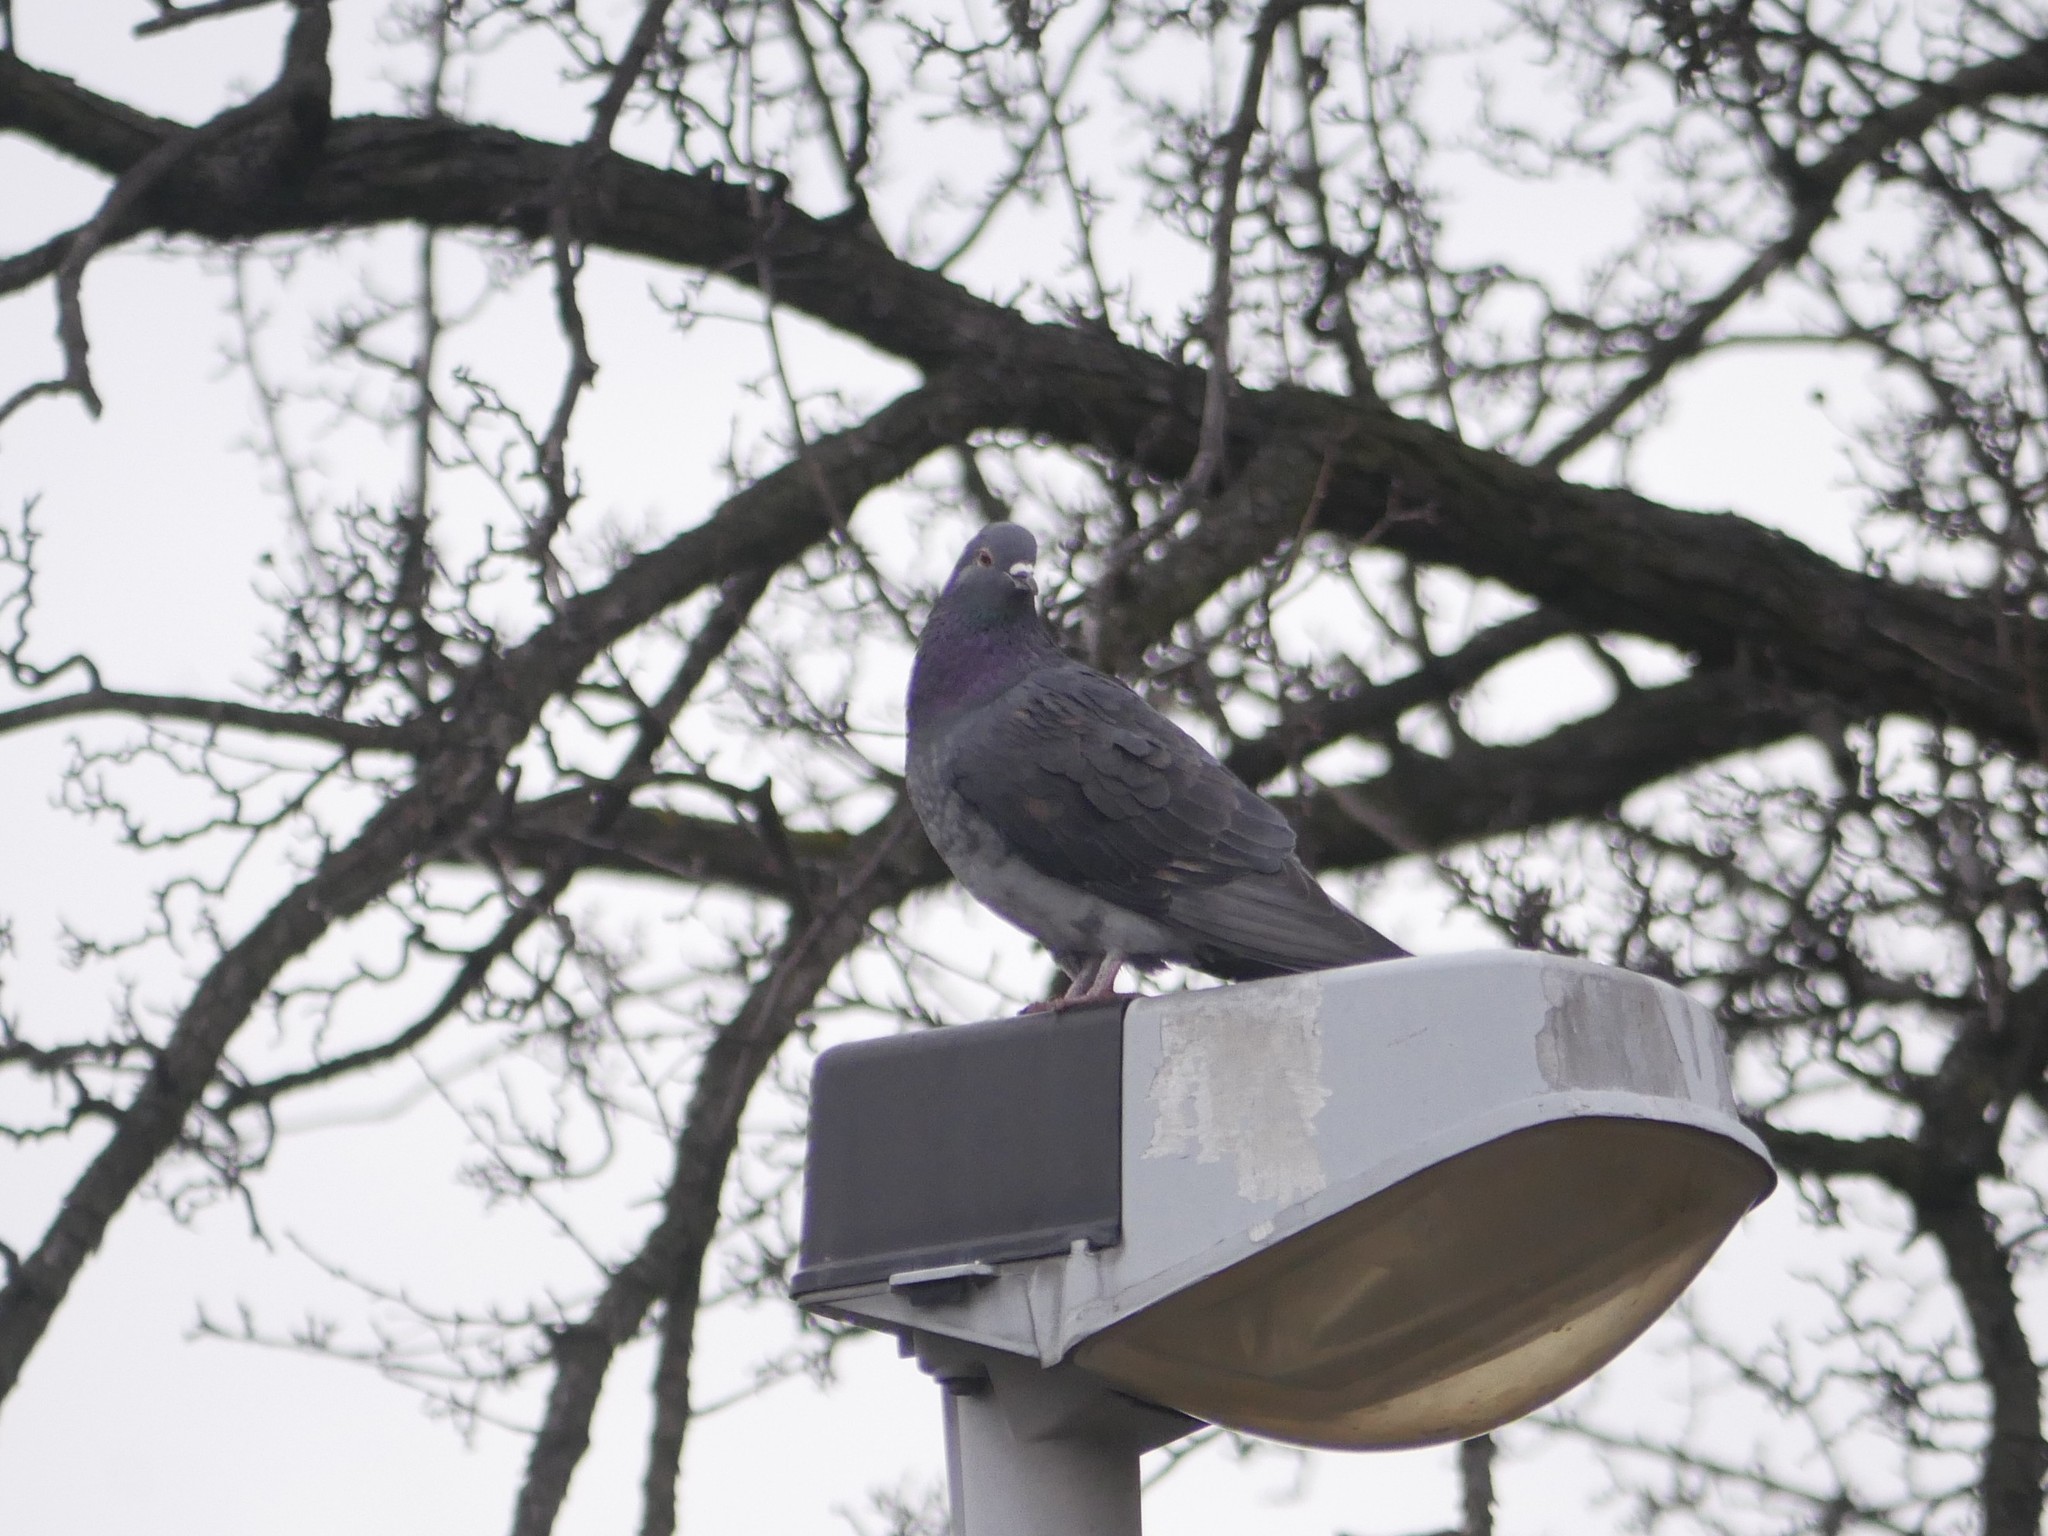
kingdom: Animalia
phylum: Chordata
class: Aves
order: Columbiformes
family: Columbidae
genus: Columba
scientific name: Columba livia
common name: Rock pigeon
